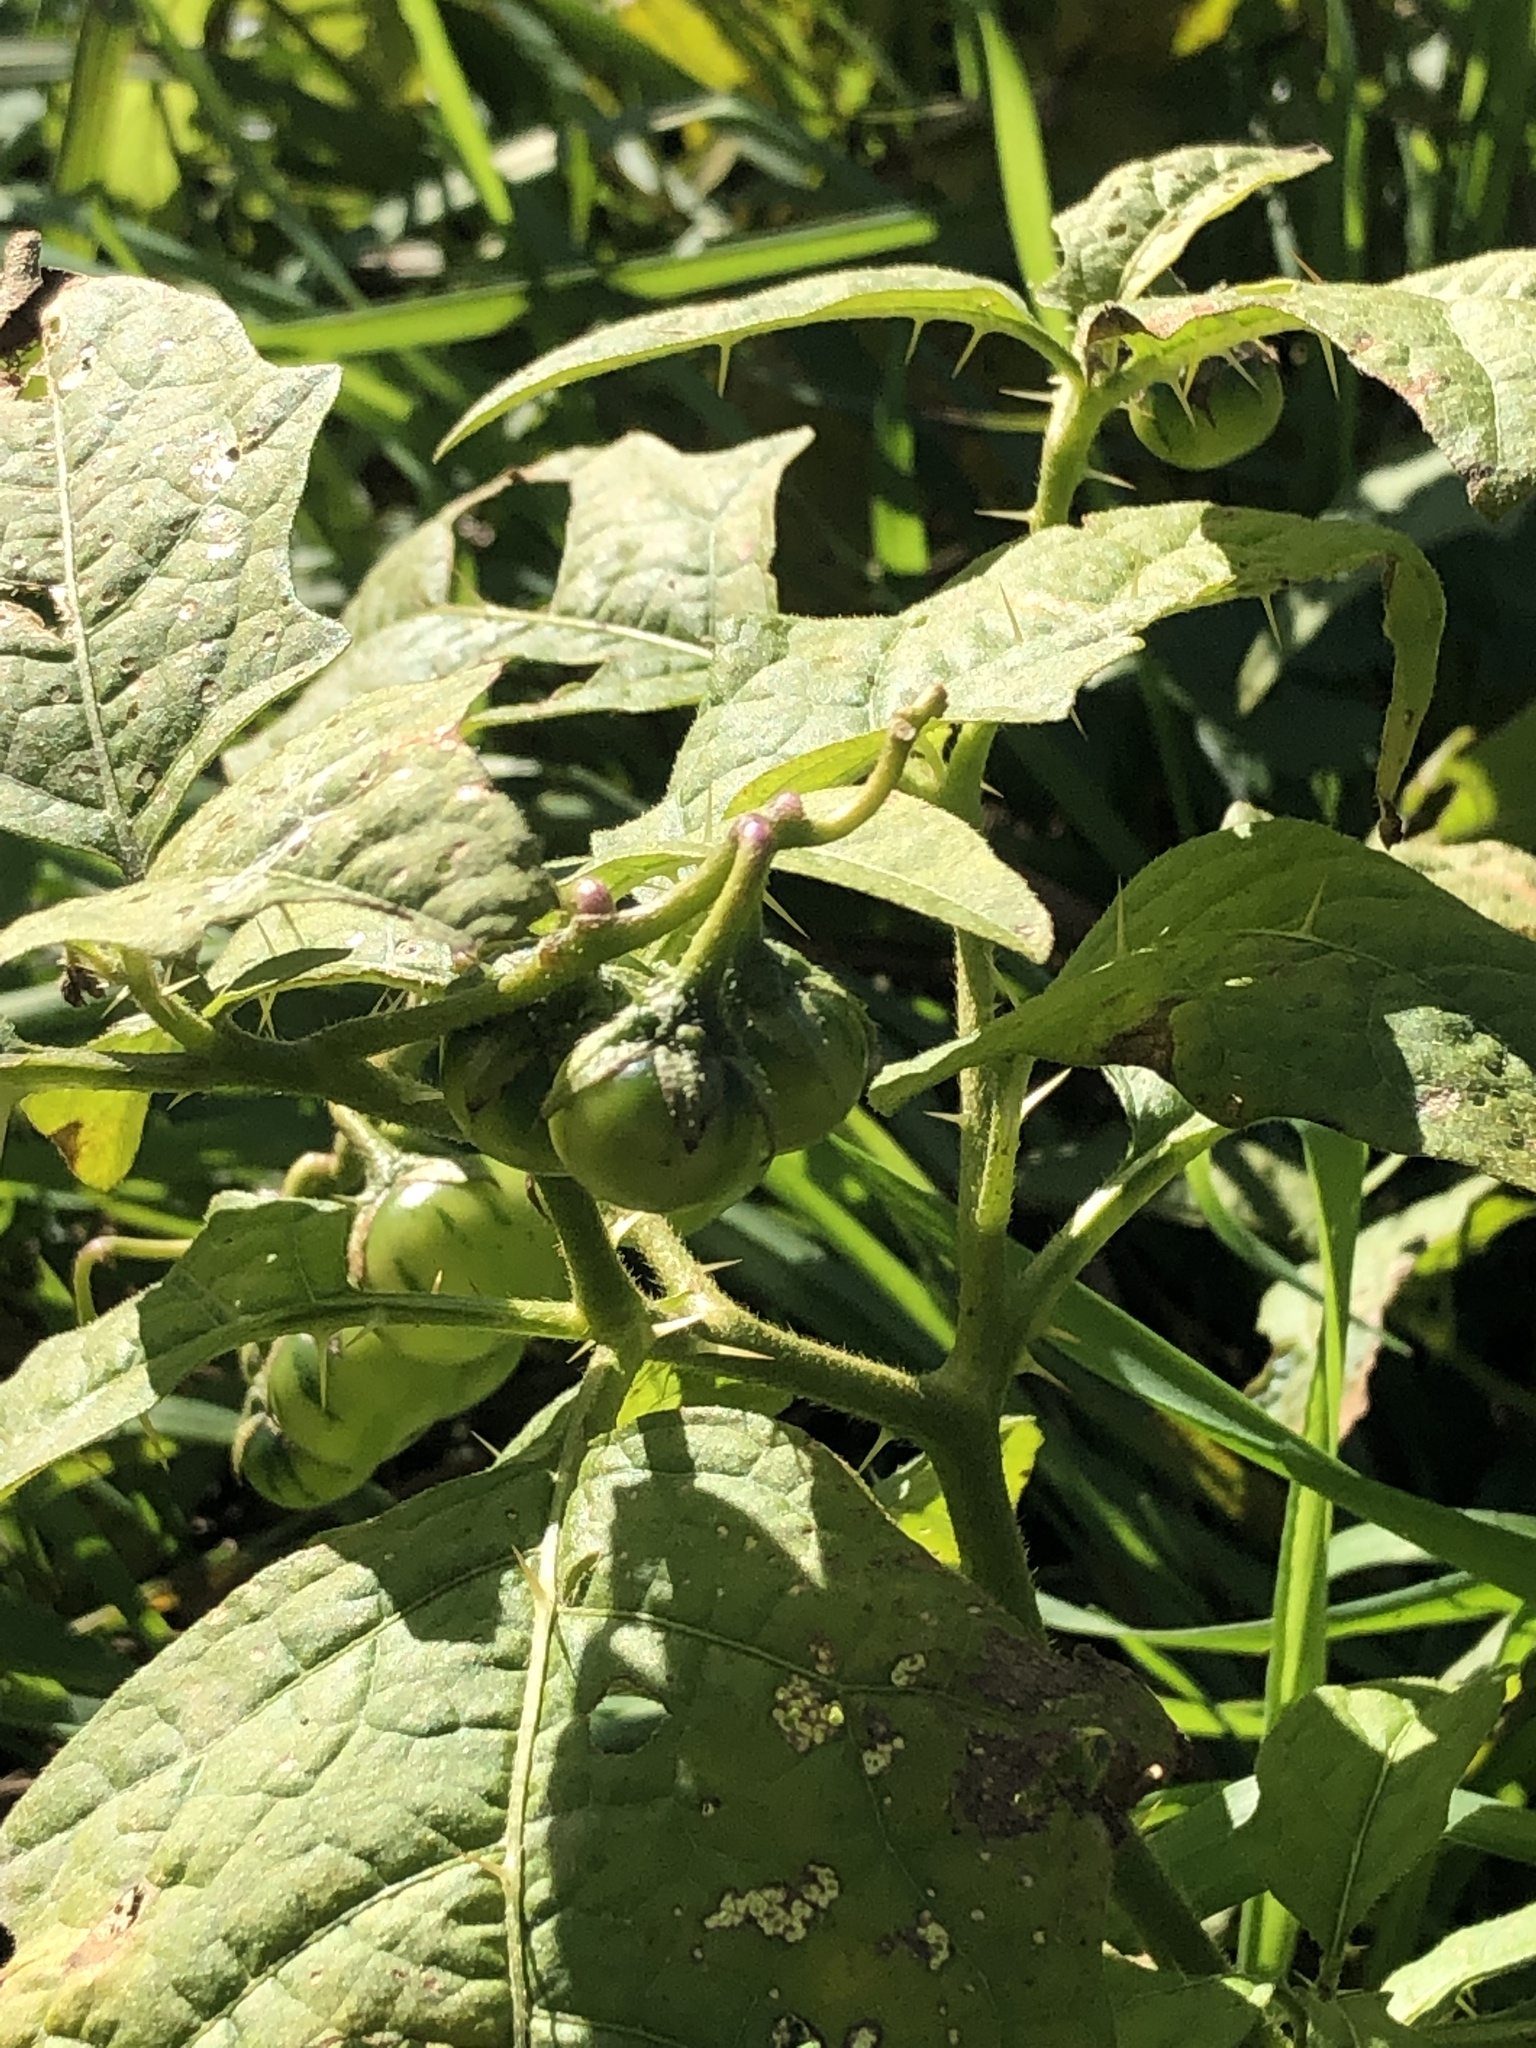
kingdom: Plantae
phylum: Tracheophyta
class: Magnoliopsida
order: Solanales
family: Solanaceae
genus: Solanum
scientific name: Solanum carolinense
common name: Horse-nettle
